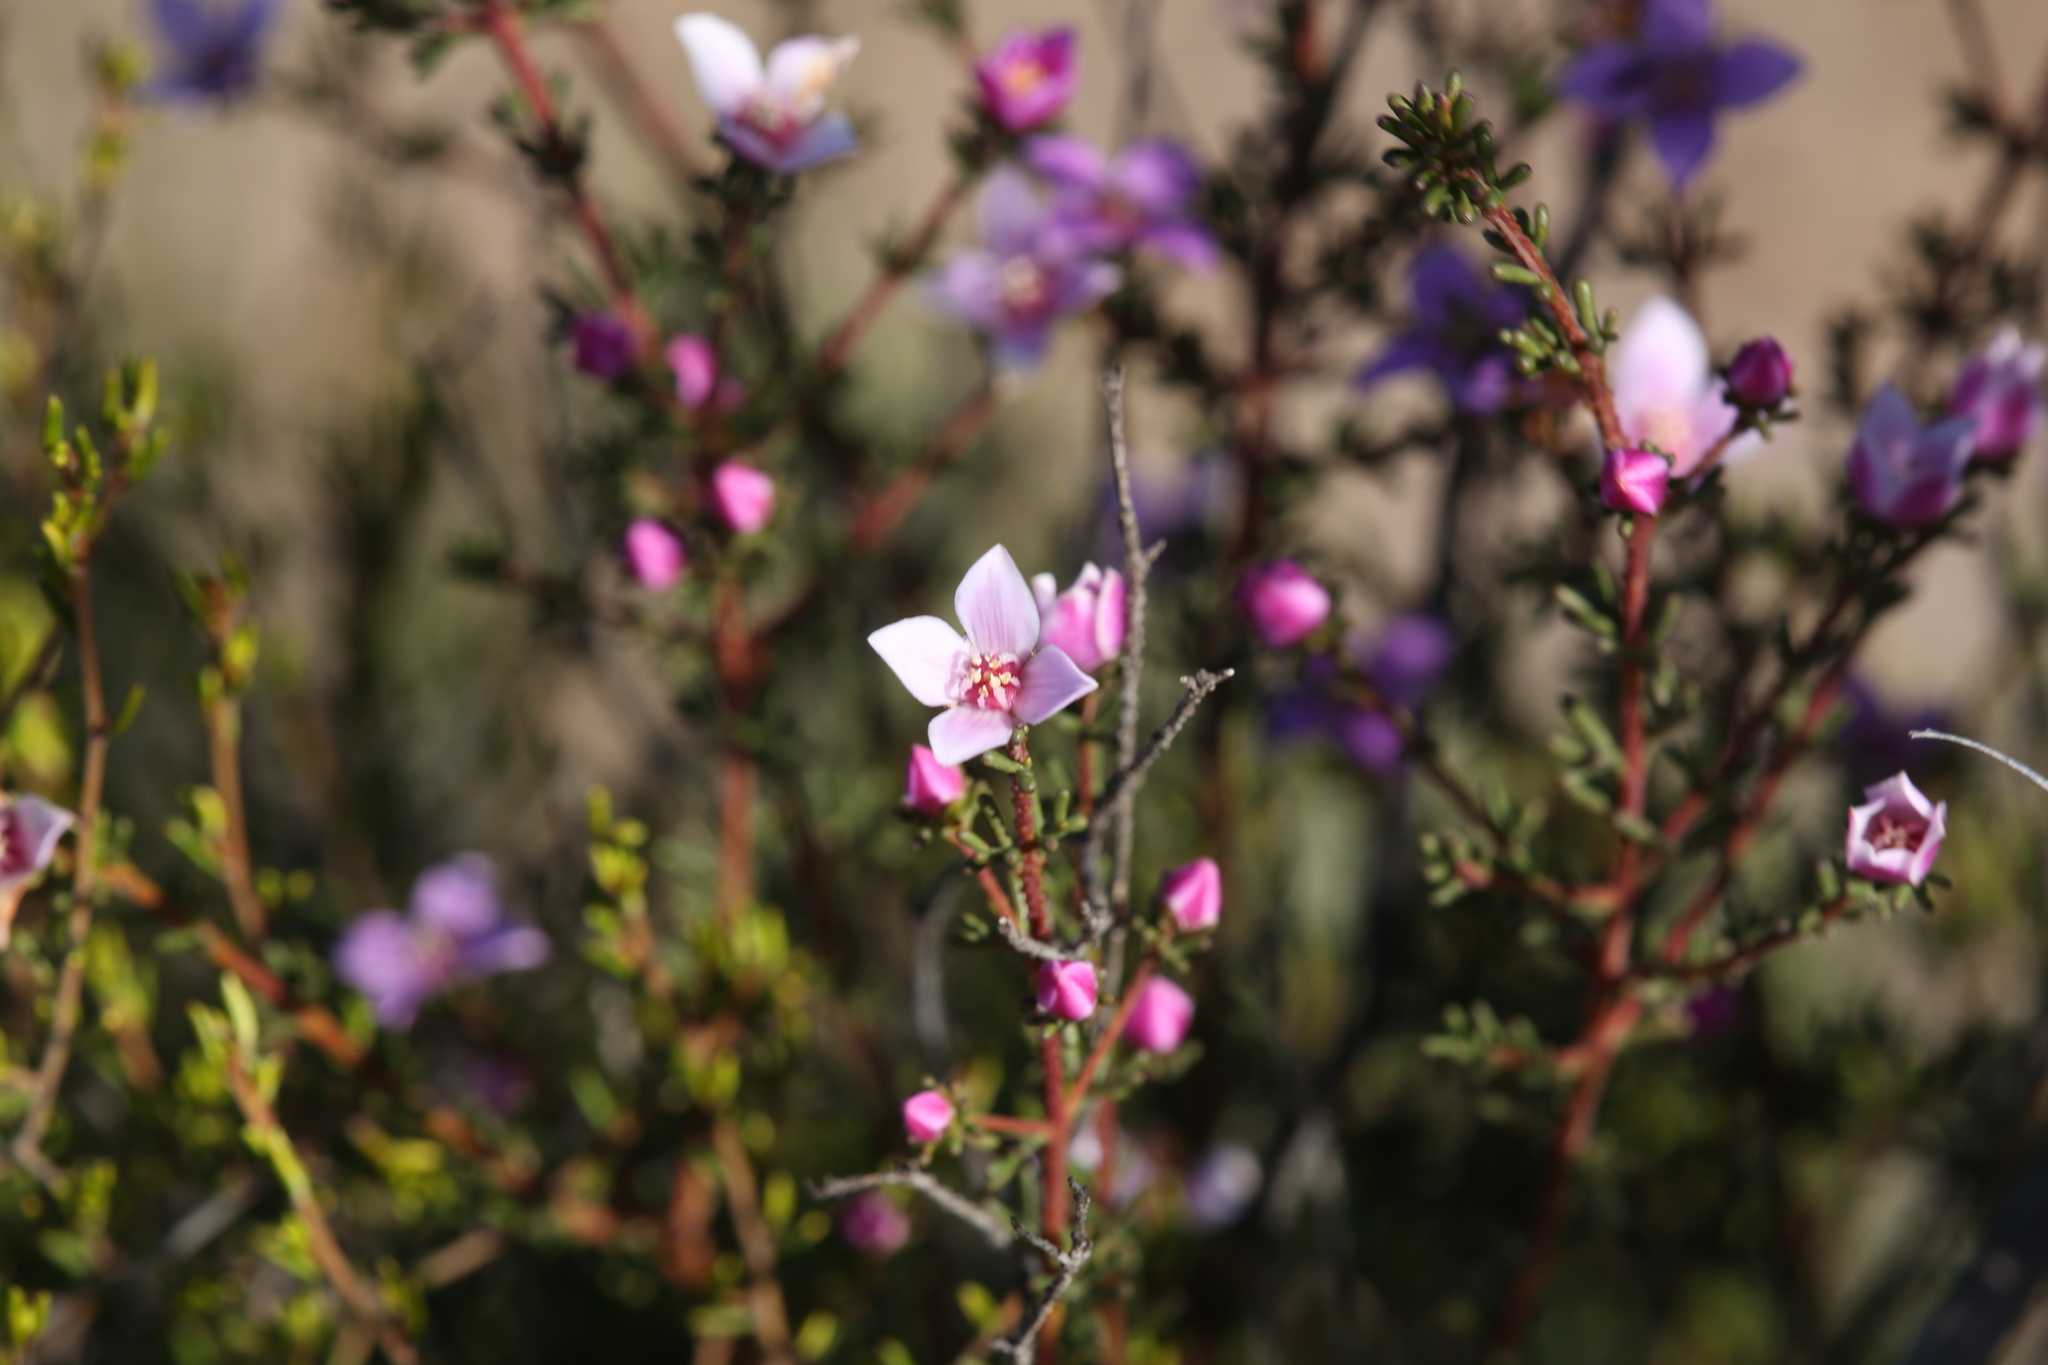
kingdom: Plantae
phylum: Tracheophyta
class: Magnoliopsida
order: Sapindales
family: Rutaceae
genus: Boronia
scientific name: Boronia inornata
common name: Desert boronia
